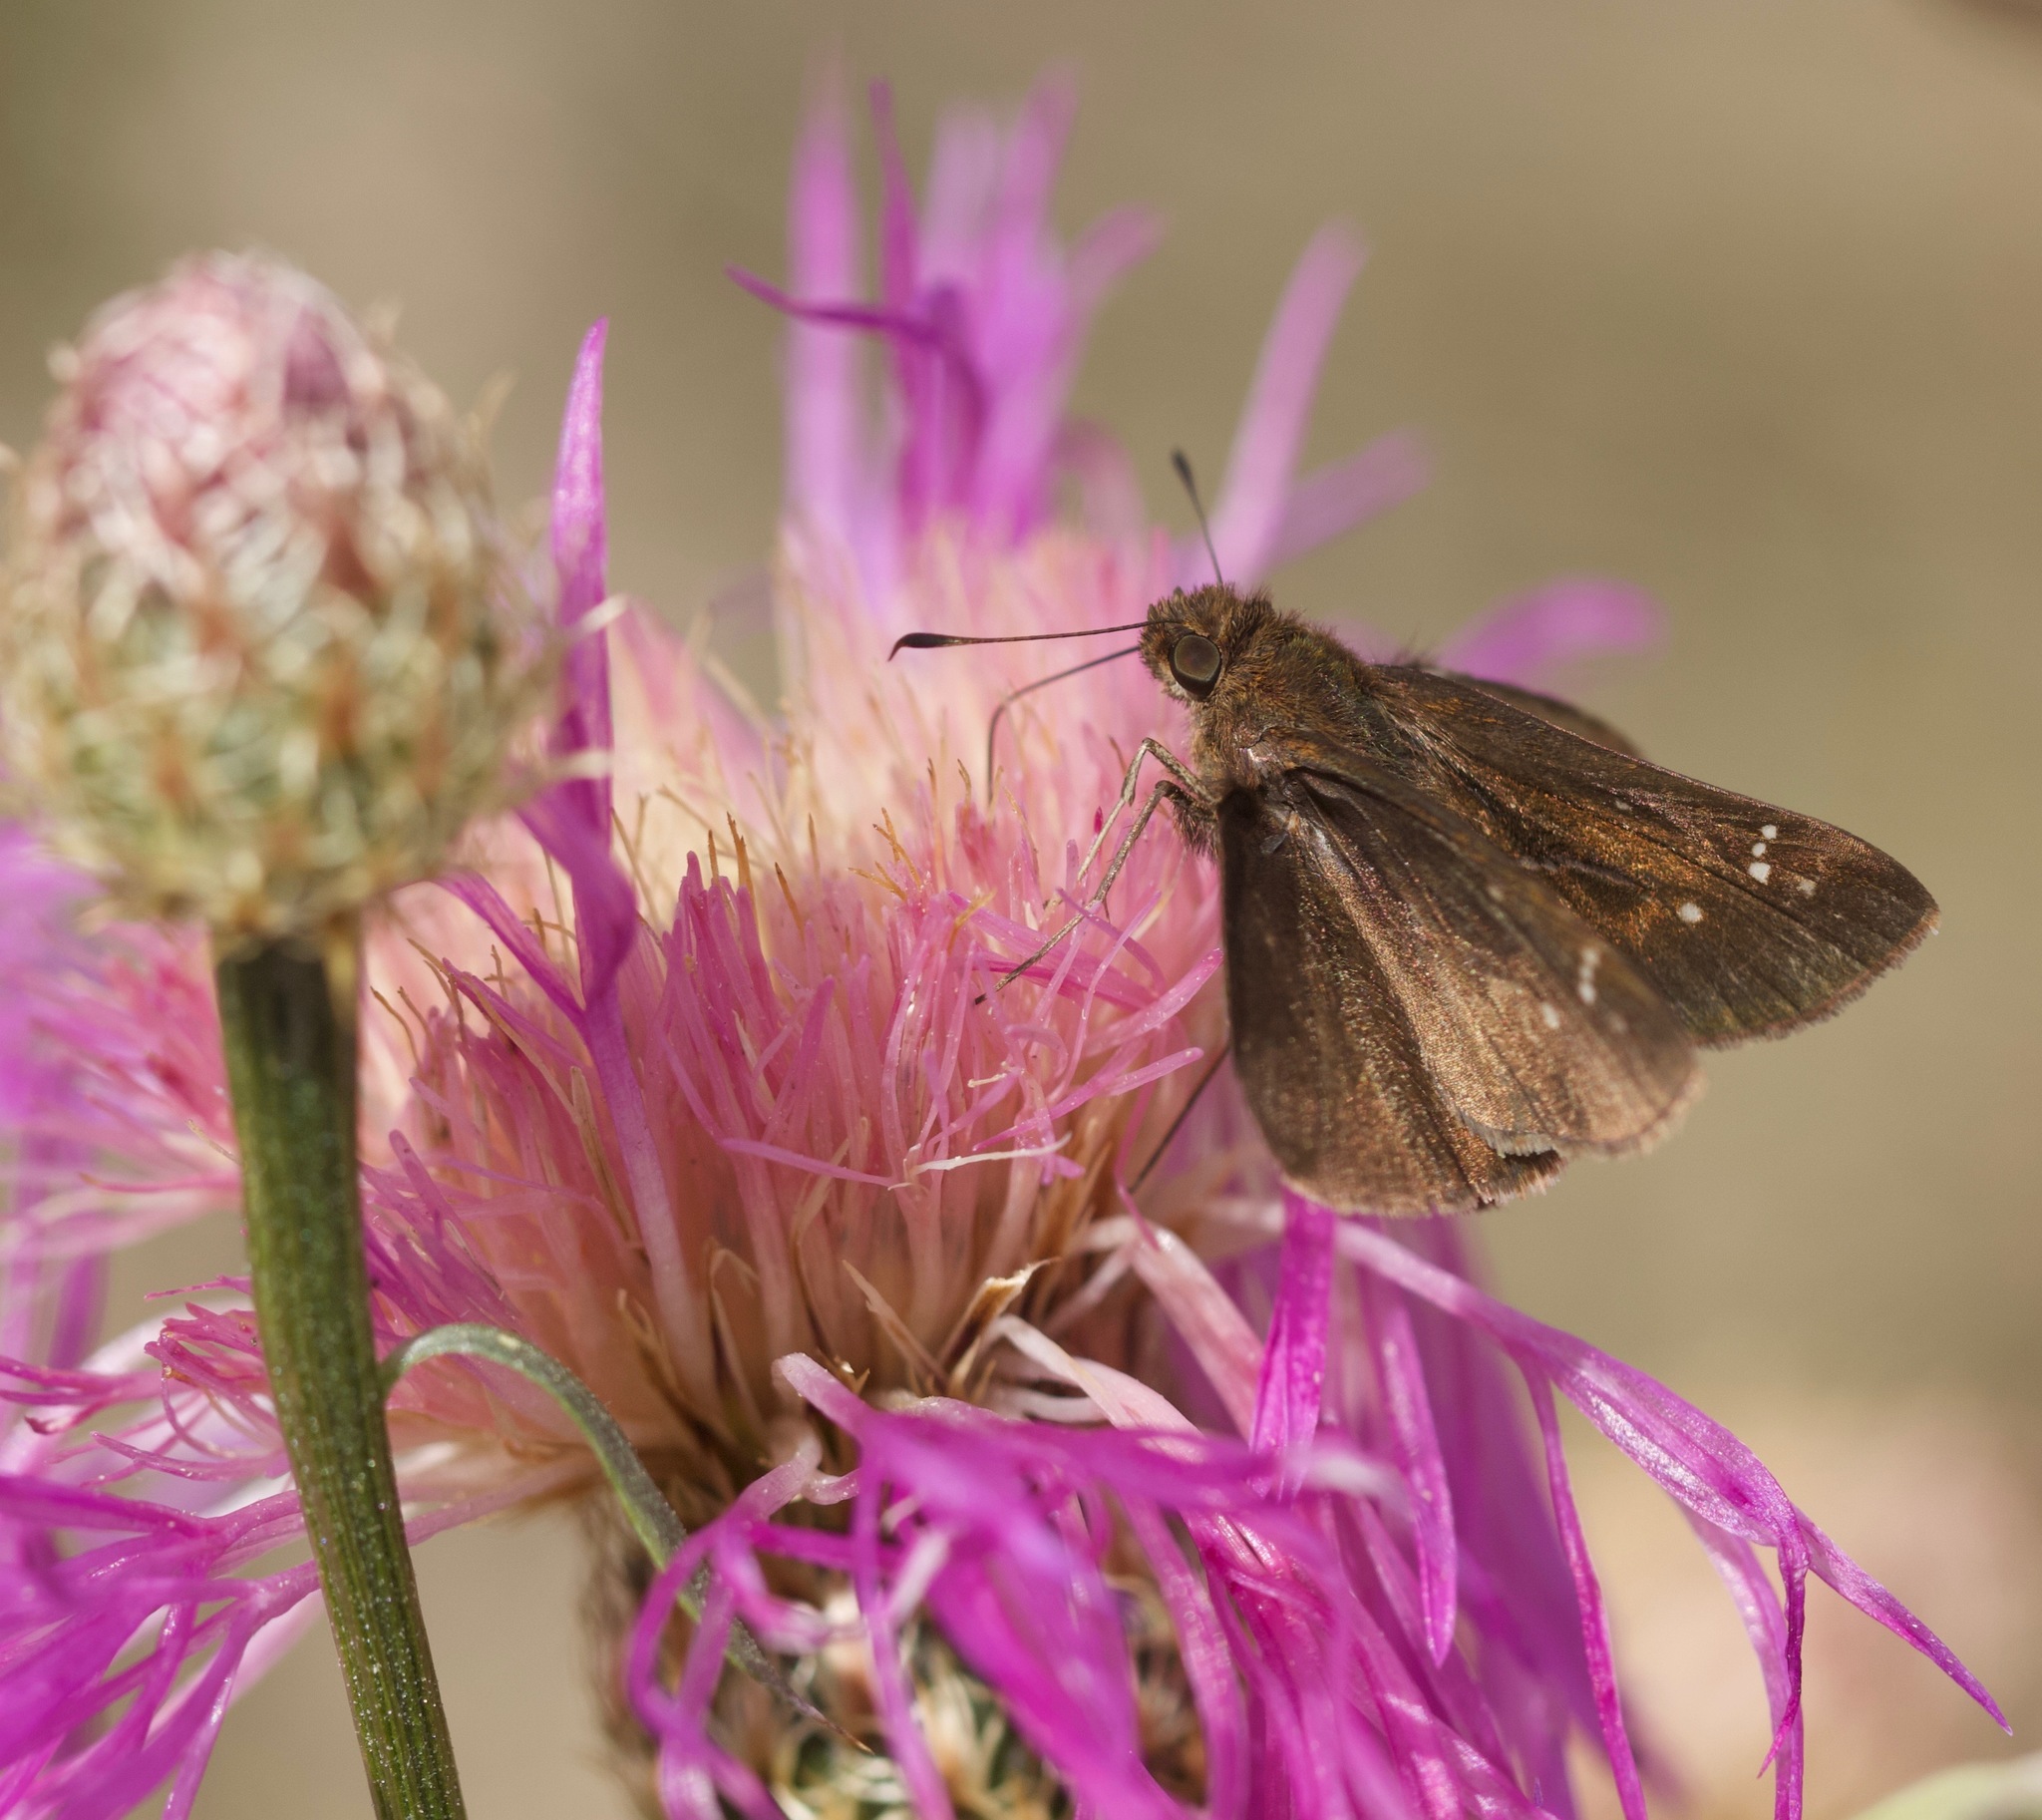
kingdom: Animalia
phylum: Arthropoda
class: Insecta
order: Lepidoptera
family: Hesperiidae
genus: Lerema
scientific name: Lerema accius
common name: Clouded skipper
